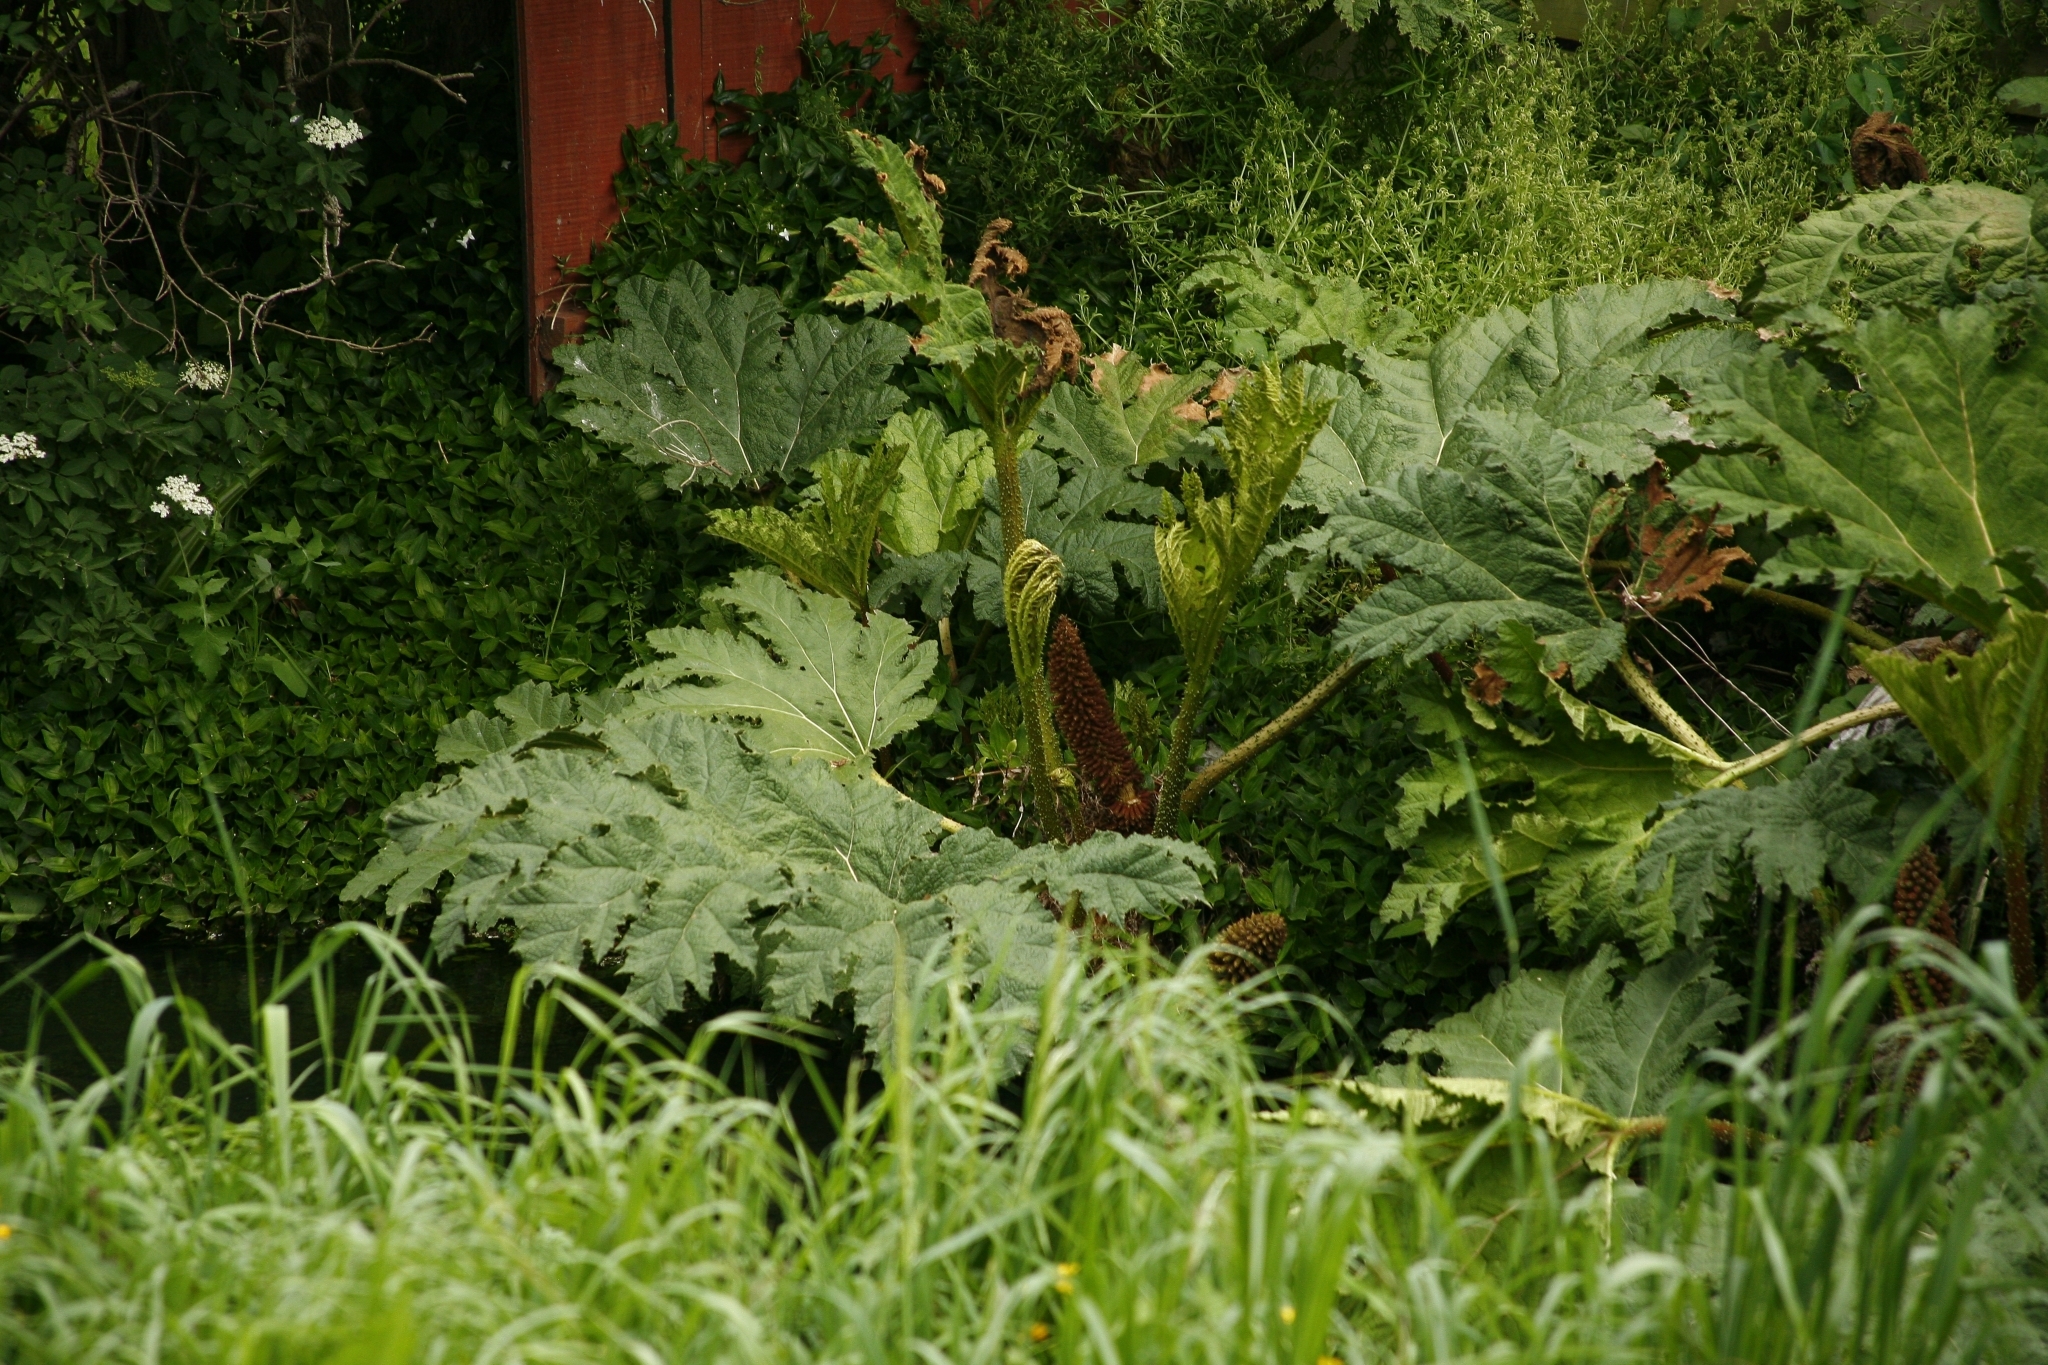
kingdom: Plantae
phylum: Tracheophyta
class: Magnoliopsida
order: Gunnerales
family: Gunneraceae
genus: Gunnera
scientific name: Gunnera tinctoria
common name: Giant-rhubarb
